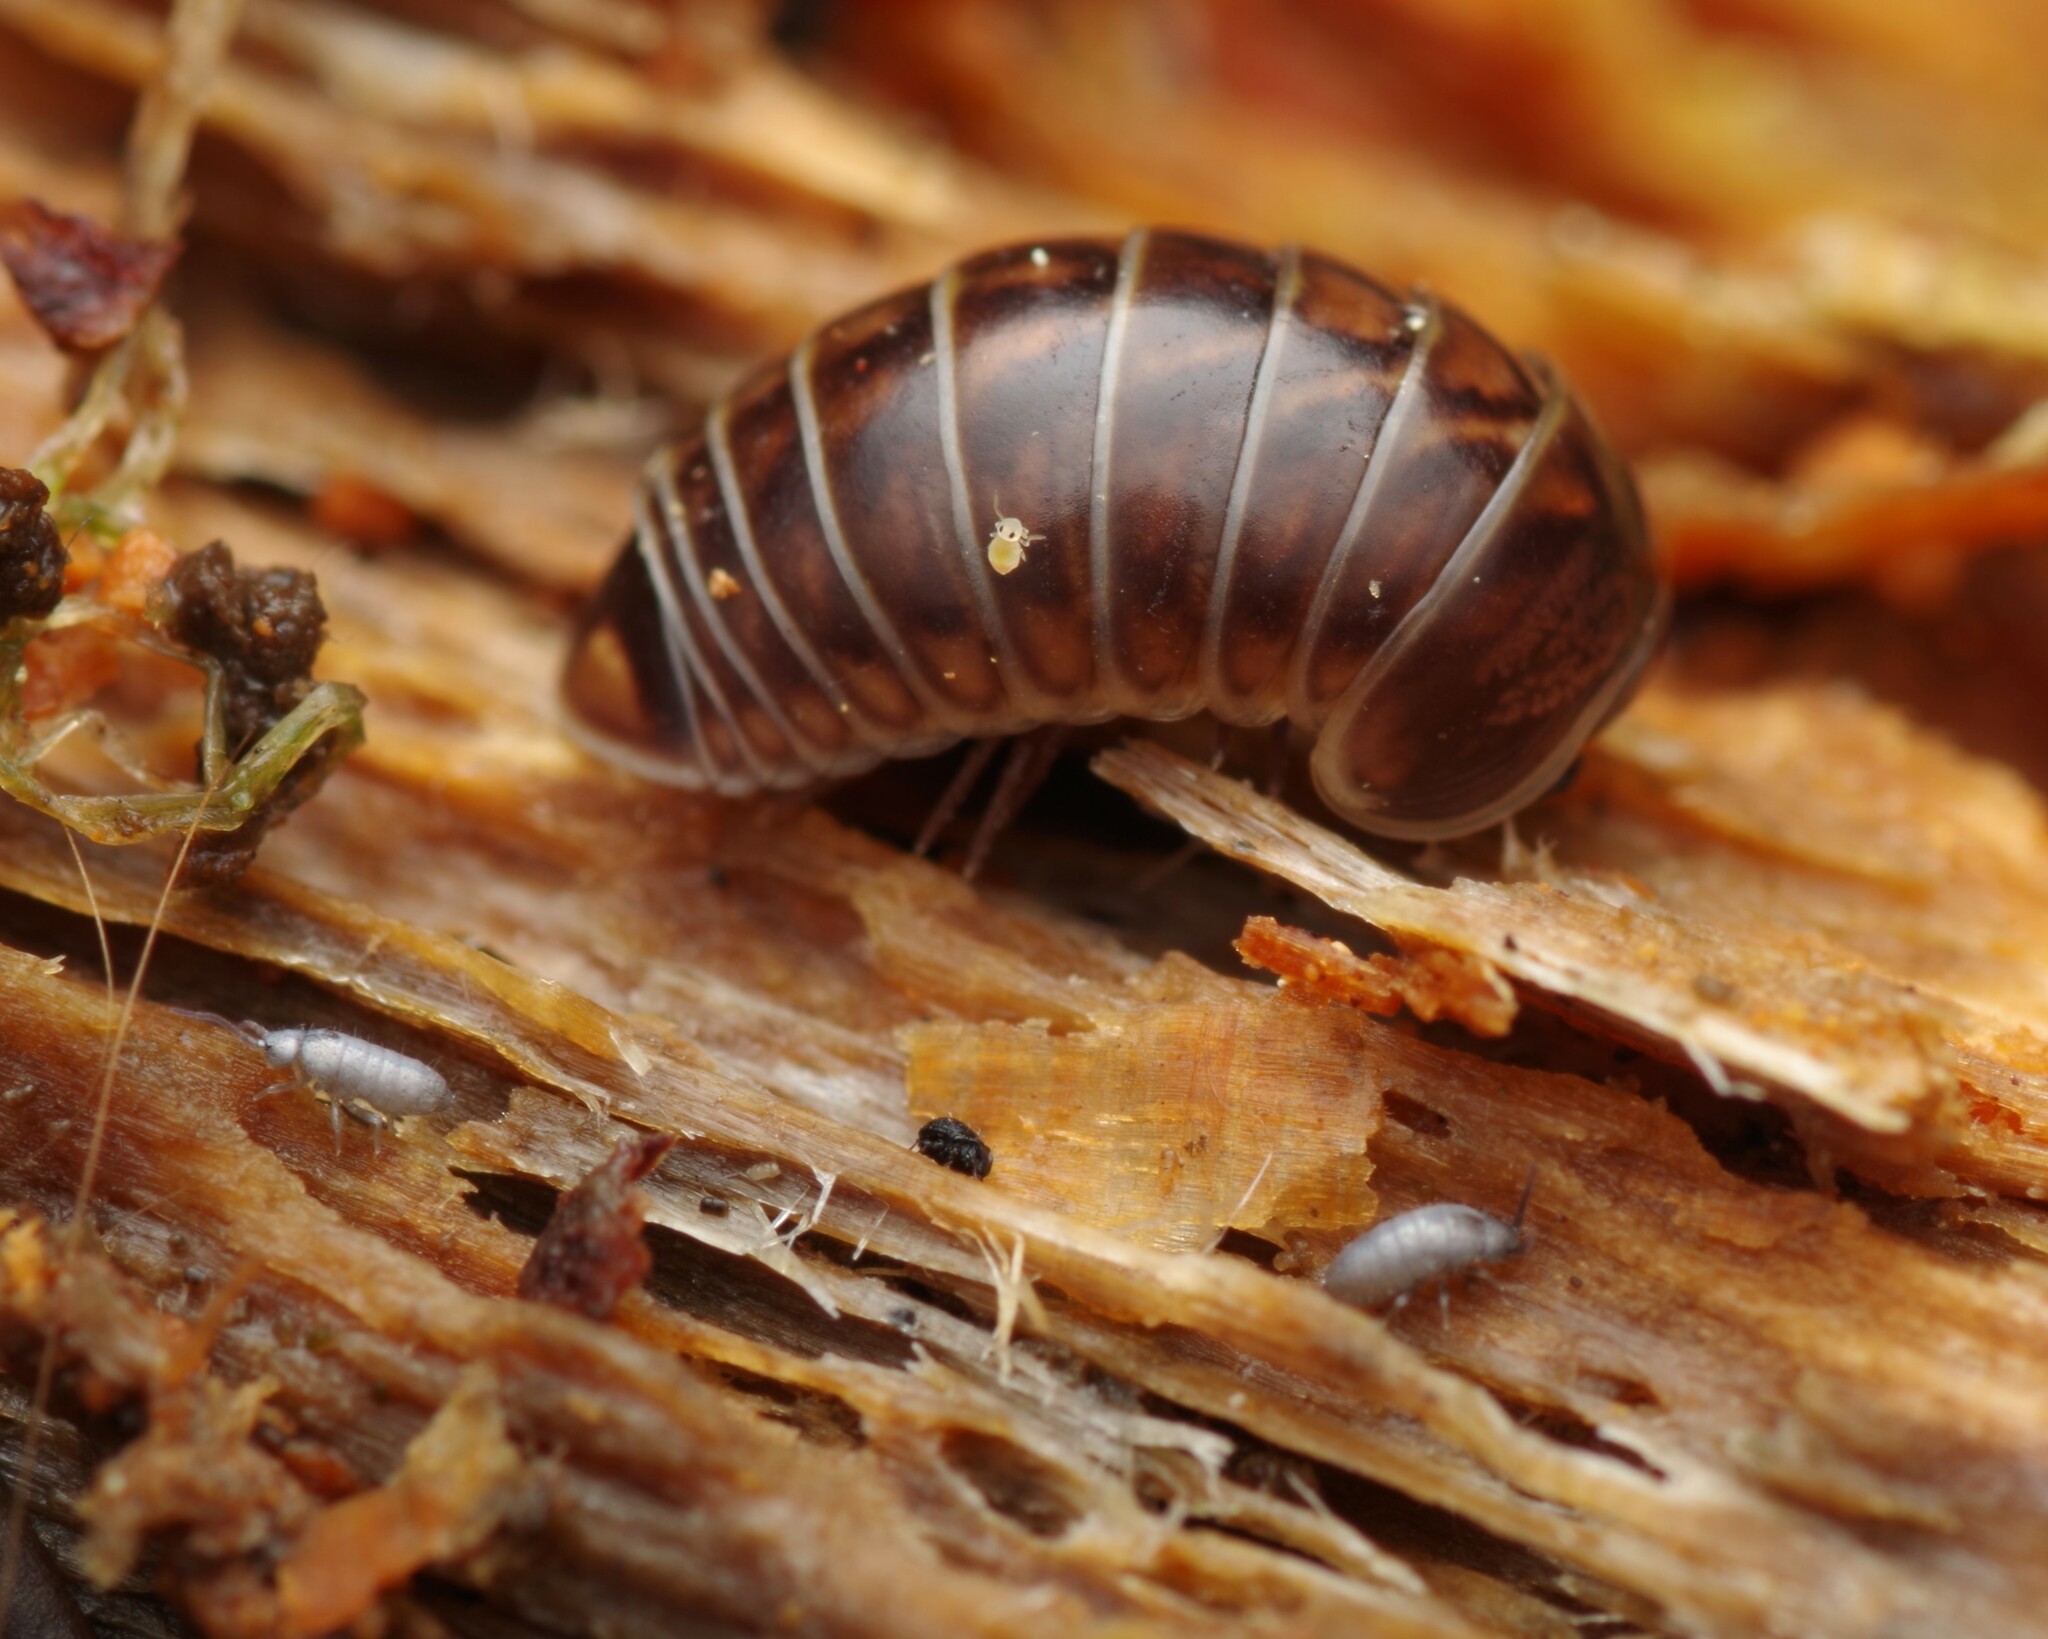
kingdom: Animalia
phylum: Arthropoda
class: Diplopoda
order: Glomerida
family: Glomeridae
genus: Glomeris
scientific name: Glomeris intermedia
